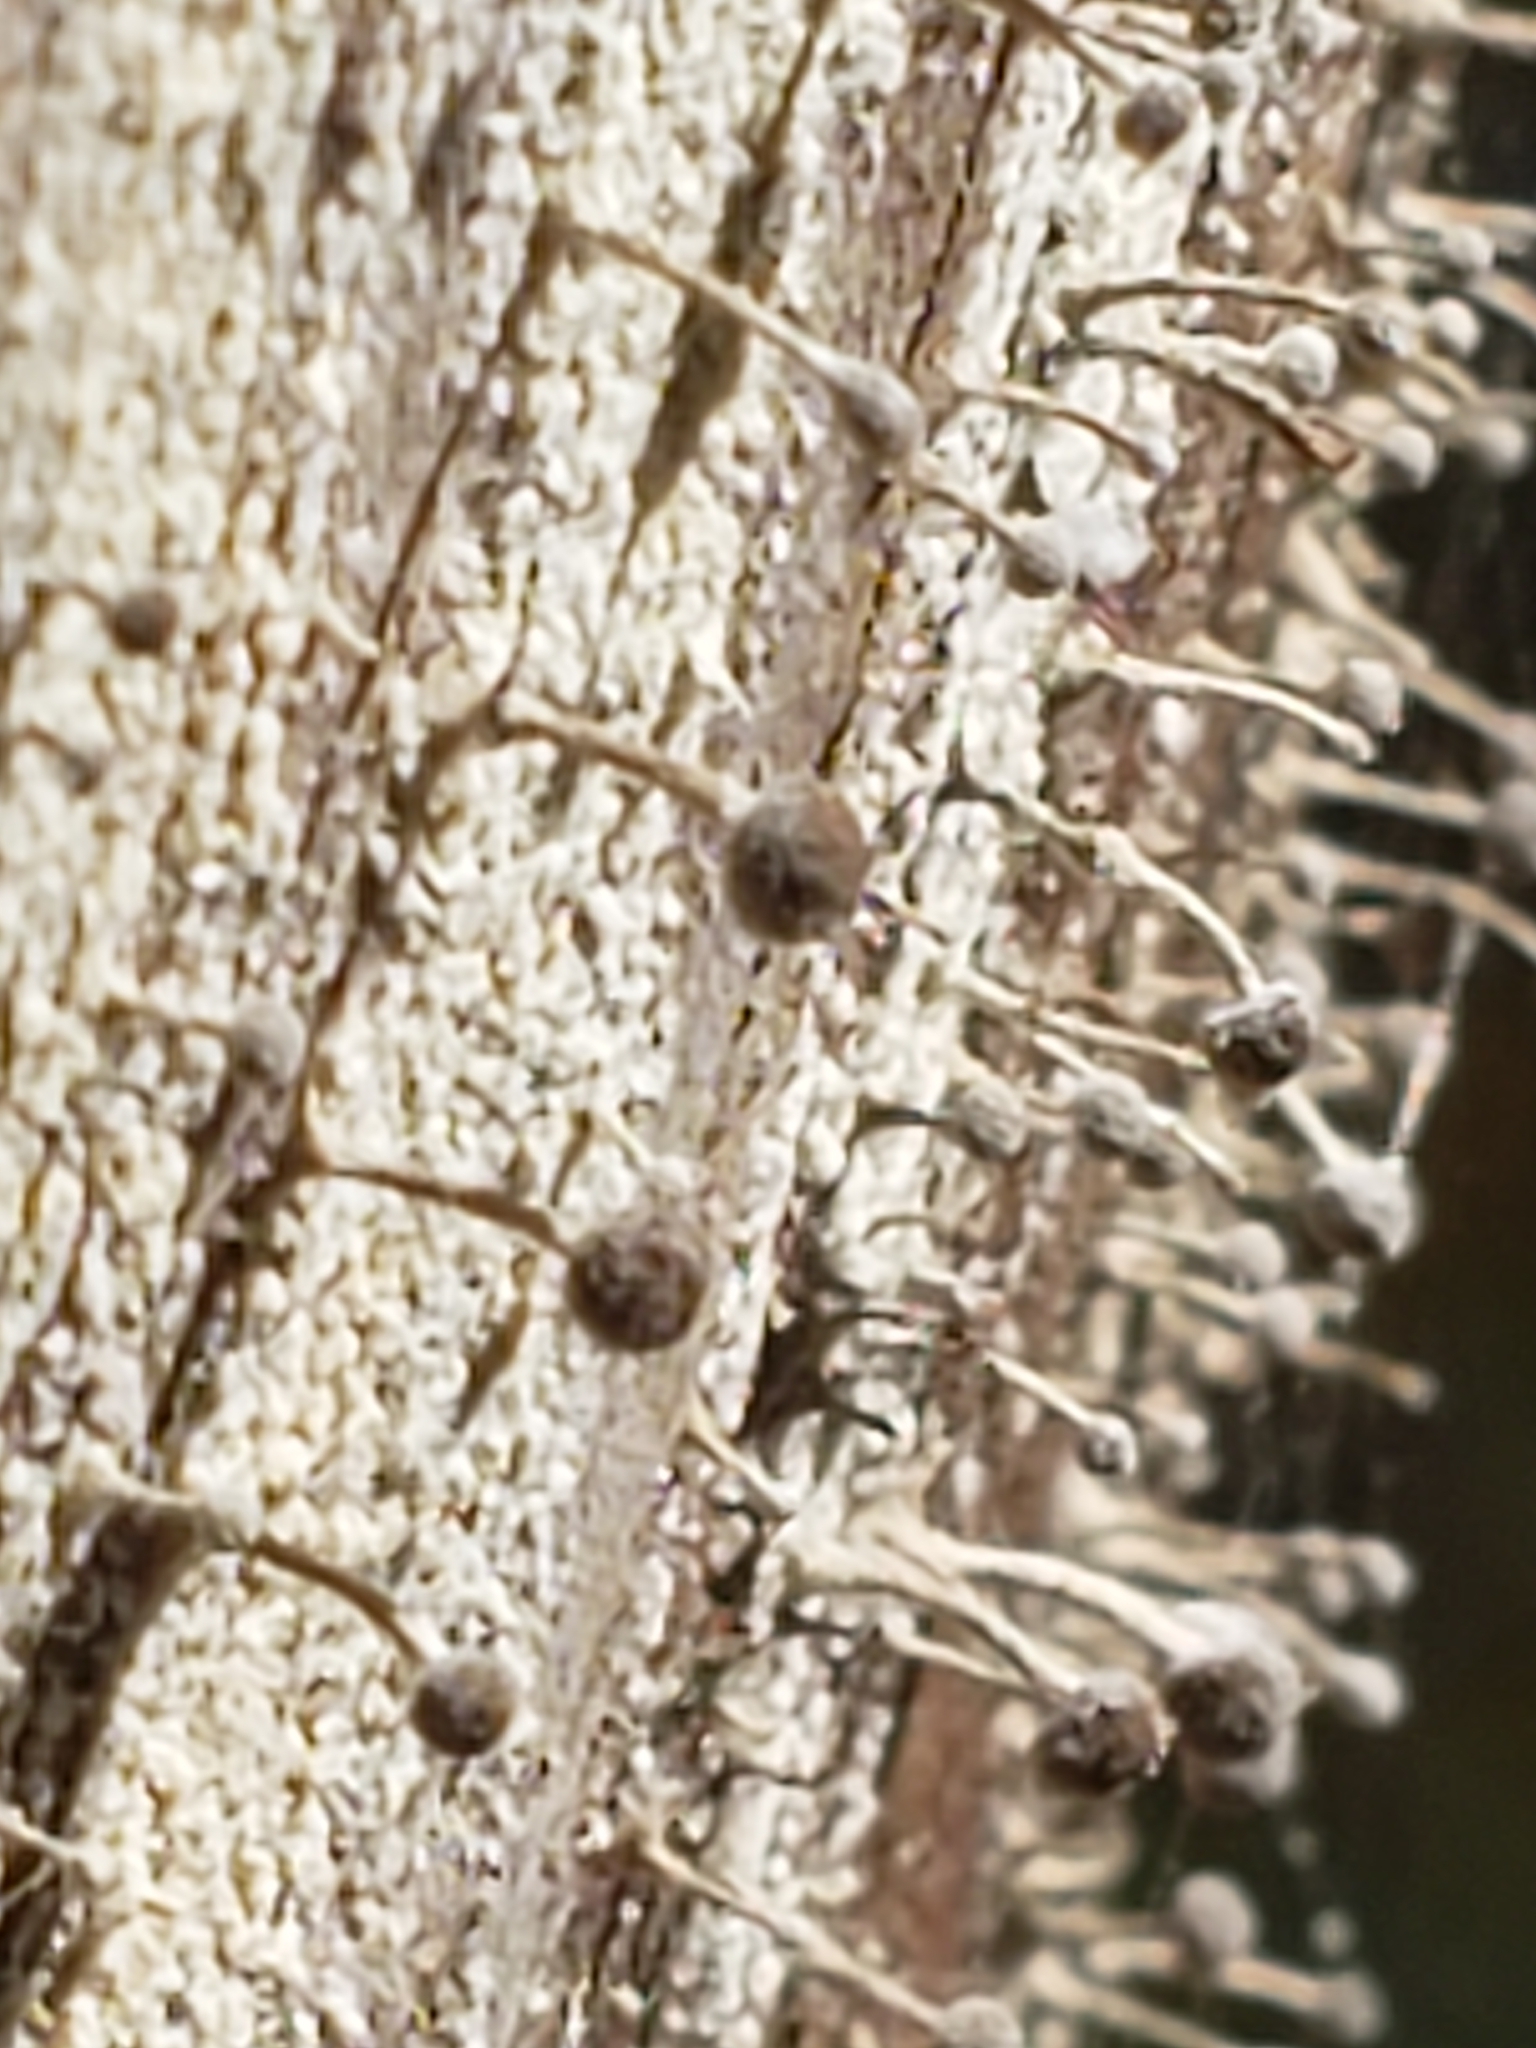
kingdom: Fungi
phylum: Basidiomycota
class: Atractiellomycetes
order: Atractiellales
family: Phleogenaceae
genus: Phleogena
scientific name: Phleogena faginea
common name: Fenugreek stalkball
